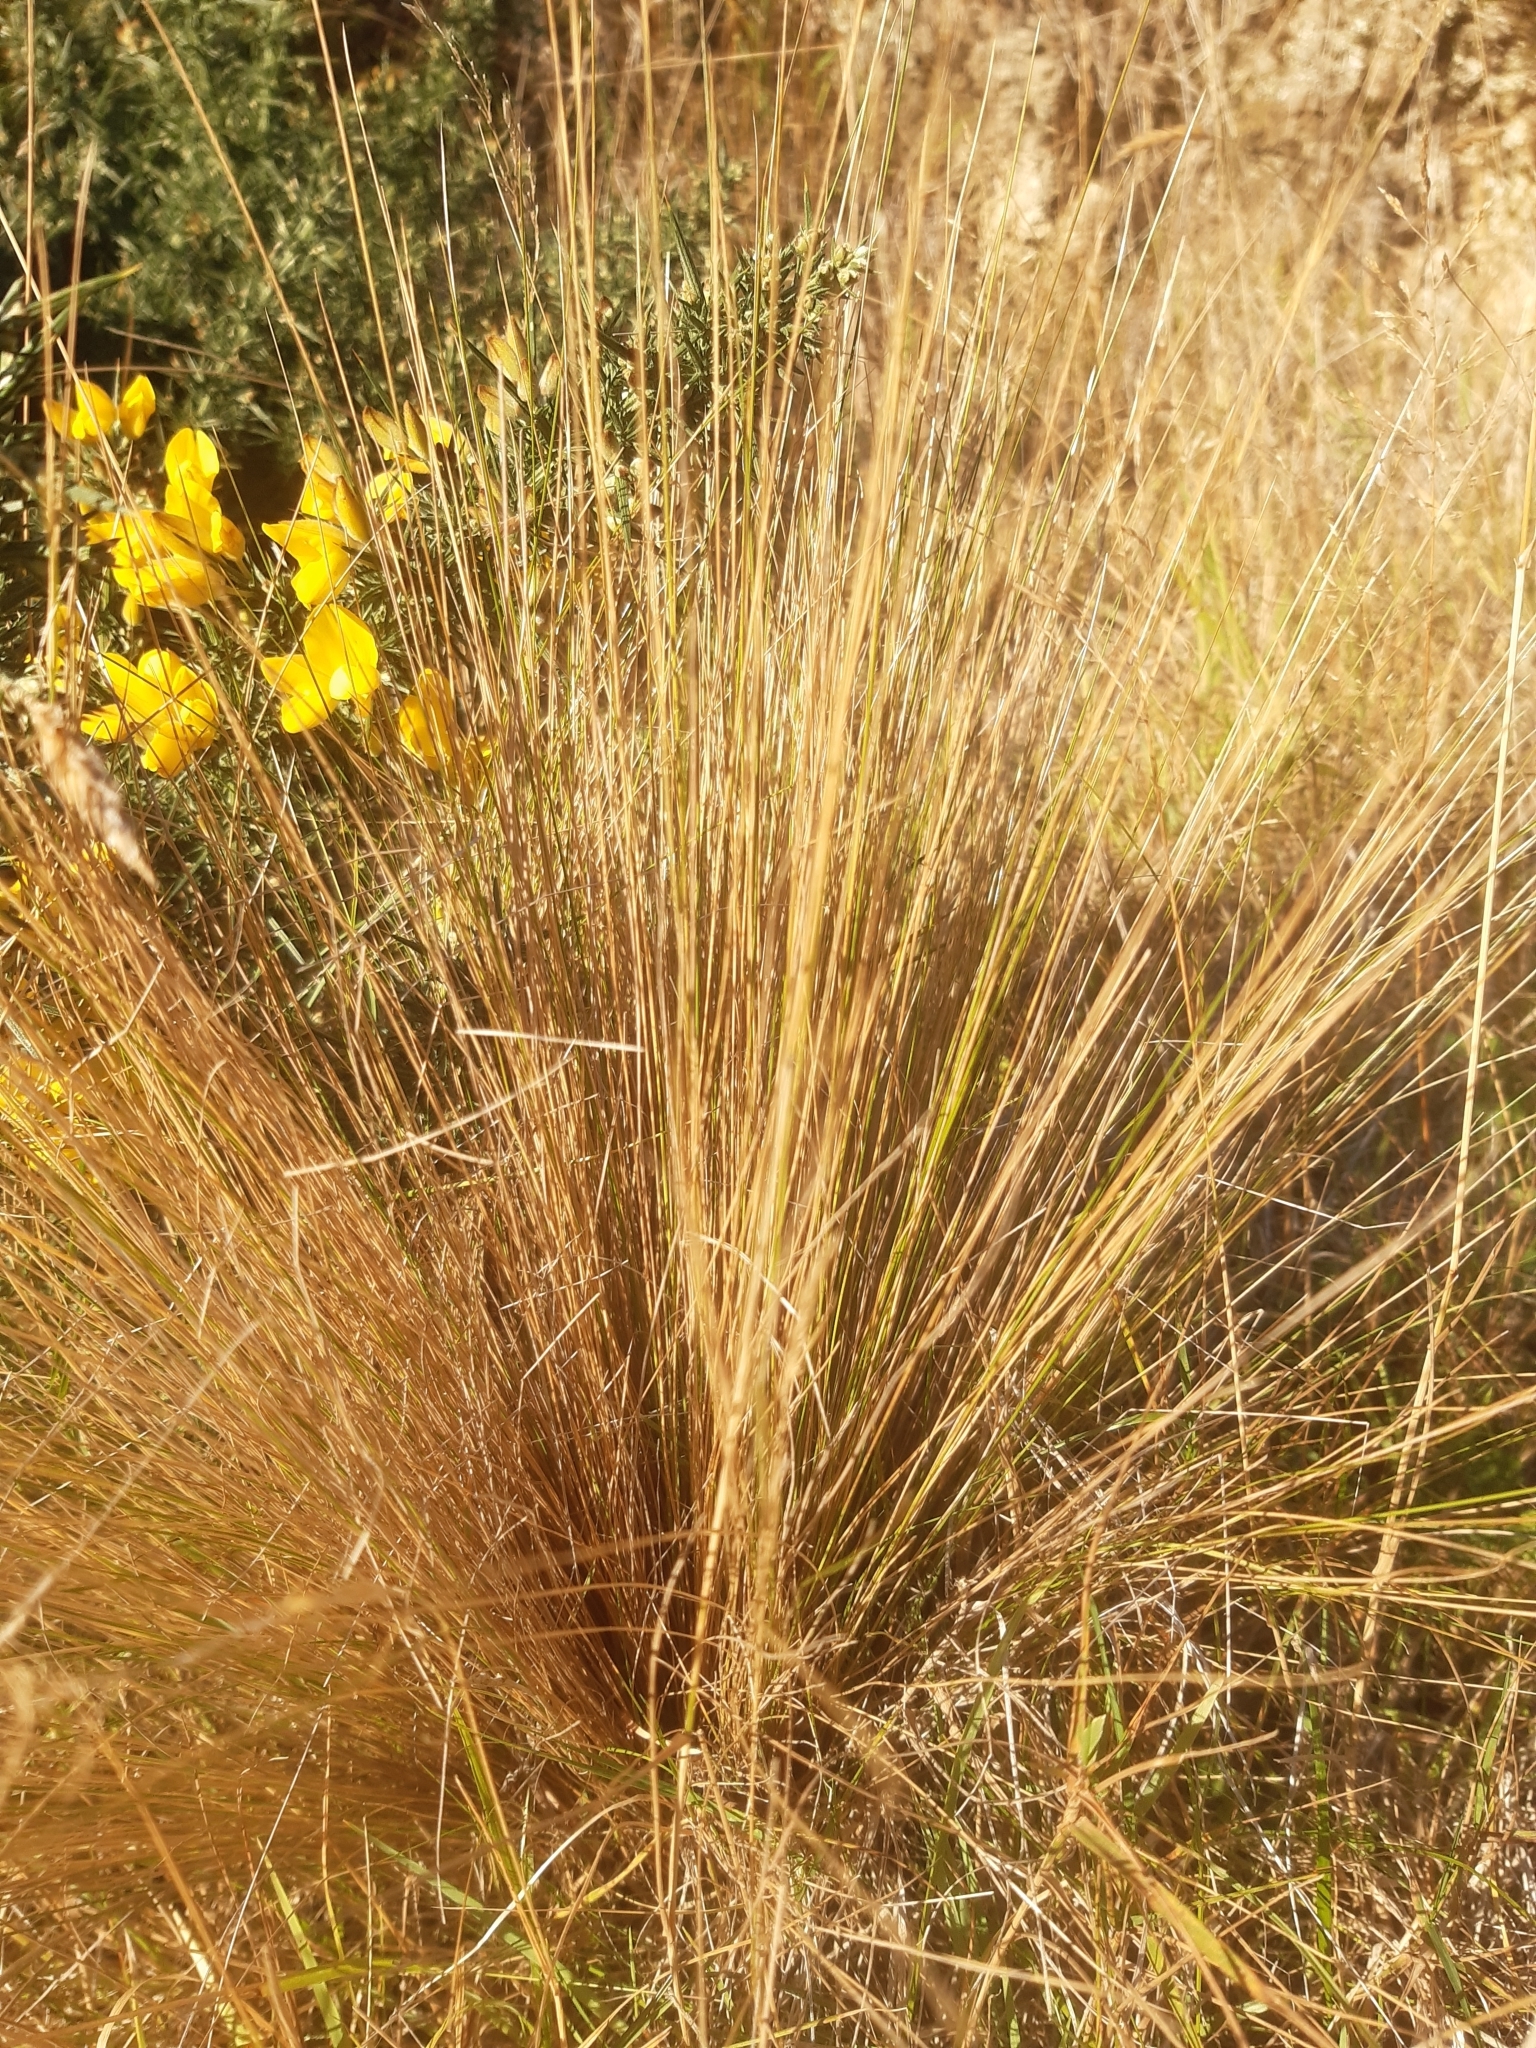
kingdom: Plantae
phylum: Tracheophyta
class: Liliopsida
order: Poales
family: Poaceae
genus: Festuca
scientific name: Festuca novae-zelandiae
